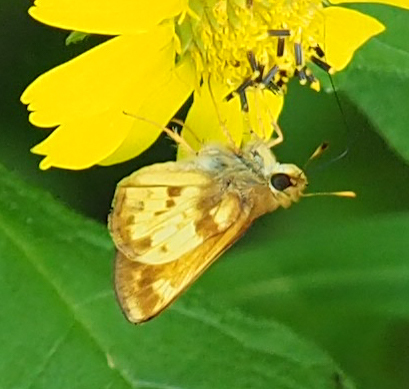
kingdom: Animalia
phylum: Arthropoda
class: Insecta
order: Lepidoptera
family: Hesperiidae
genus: Lon
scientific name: Lon zabulon
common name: Zabulon skipper
